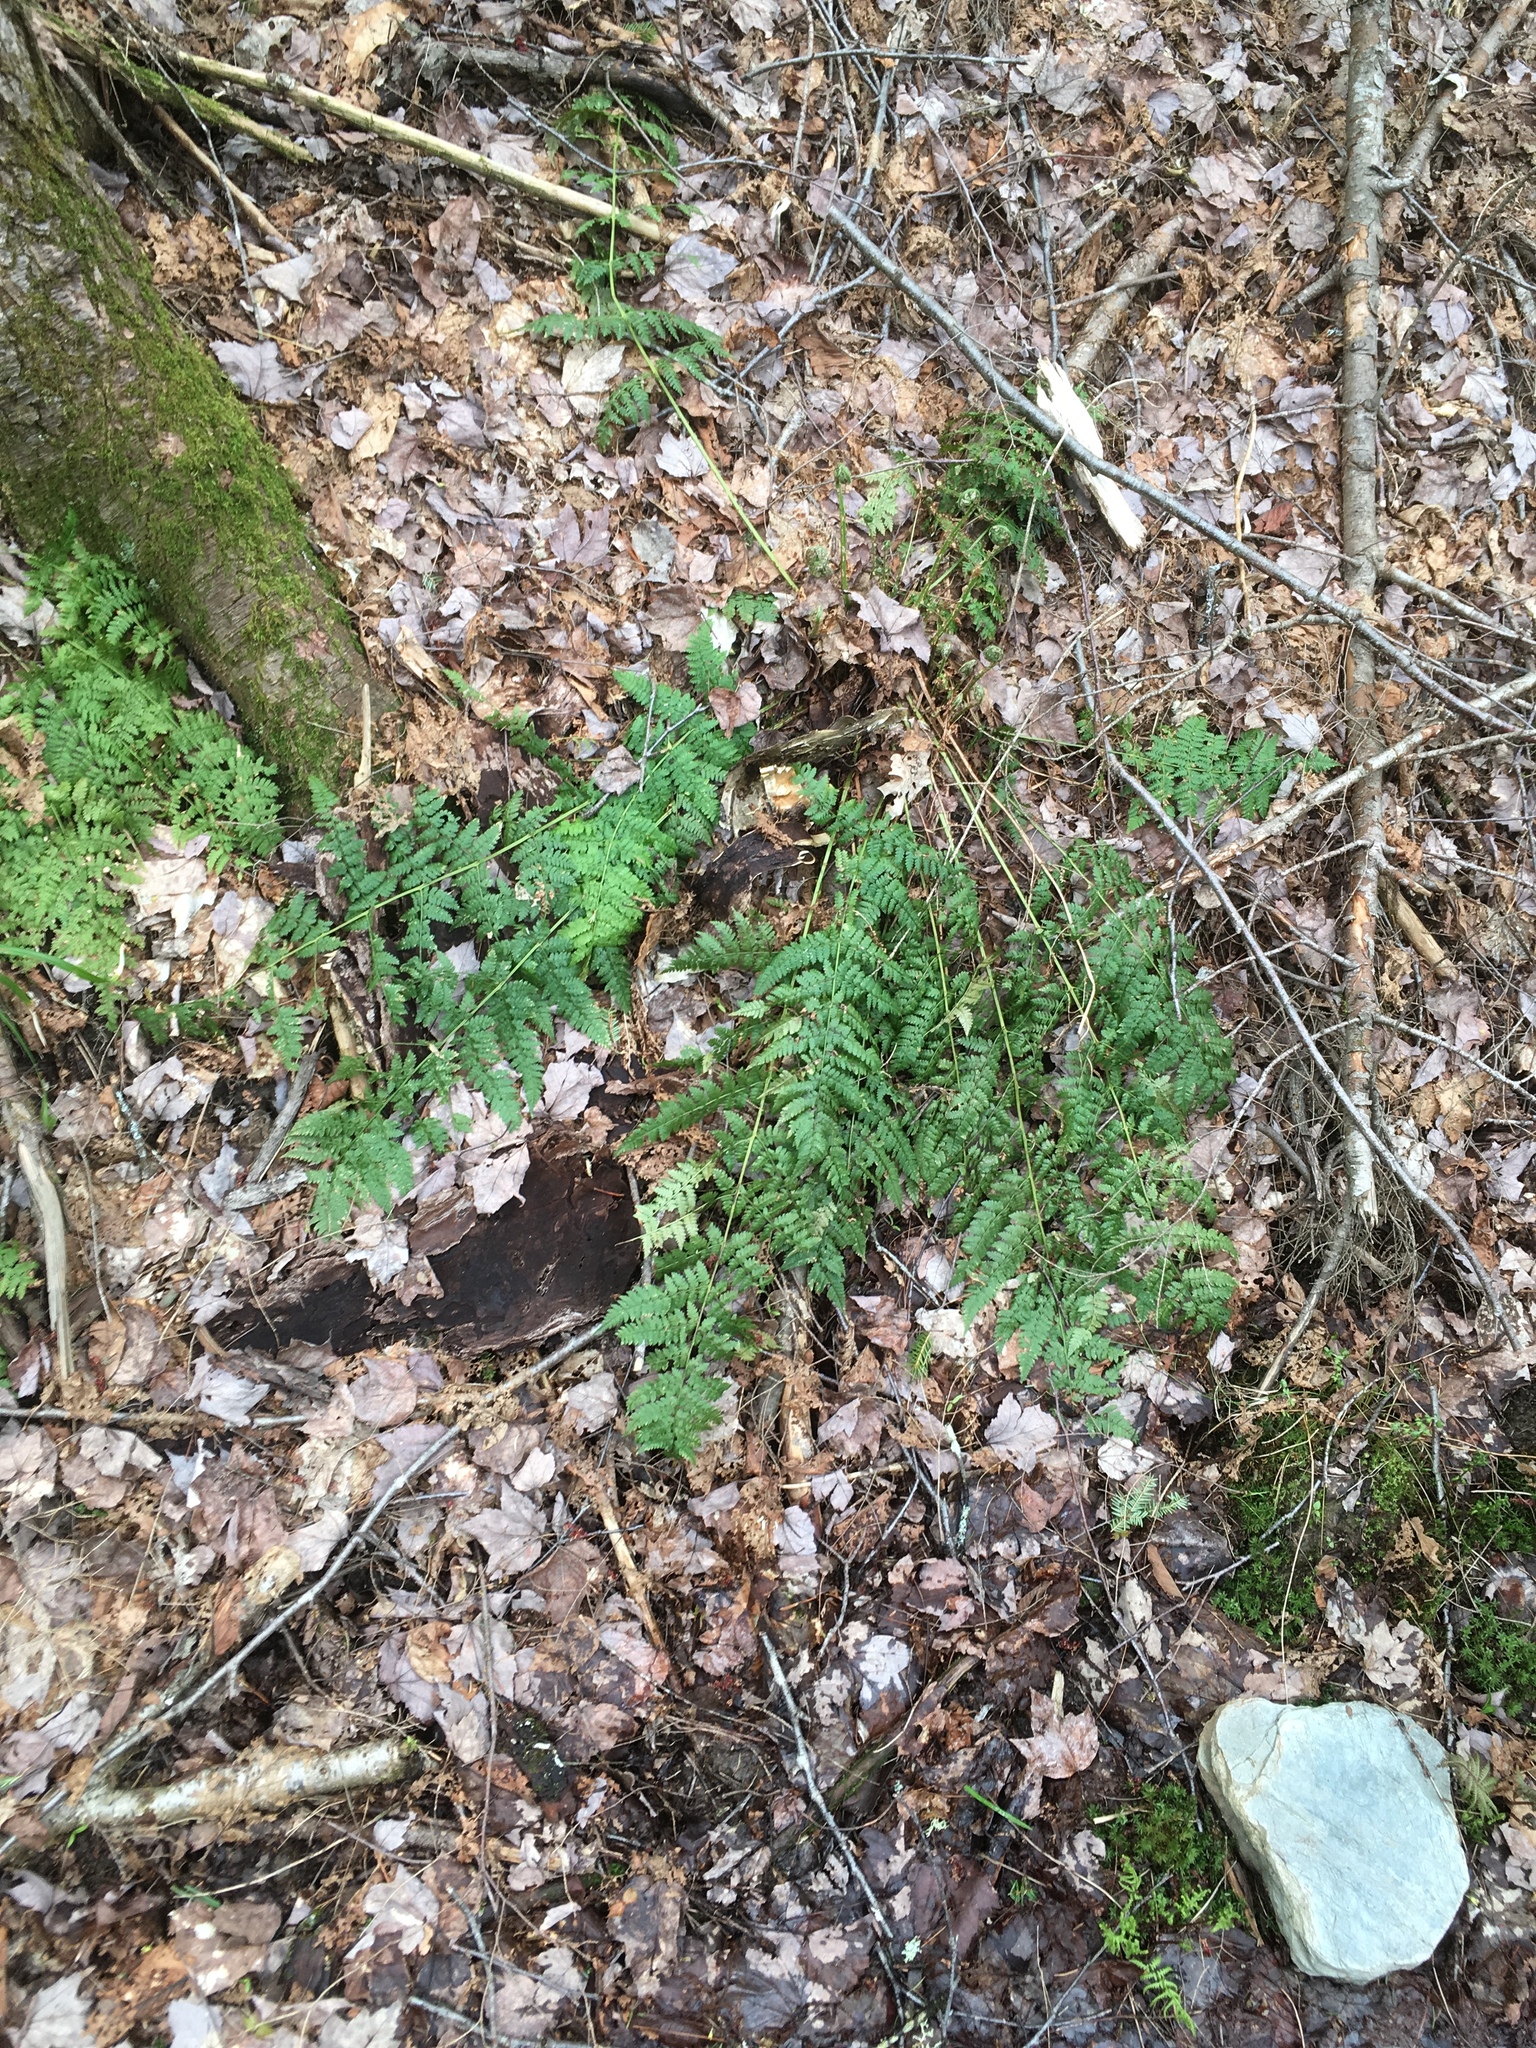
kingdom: Plantae
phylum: Tracheophyta
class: Polypodiopsida
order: Polypodiales
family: Dryopteridaceae
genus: Dryopteris
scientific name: Dryopteris intermedia
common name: Evergreen wood fern
